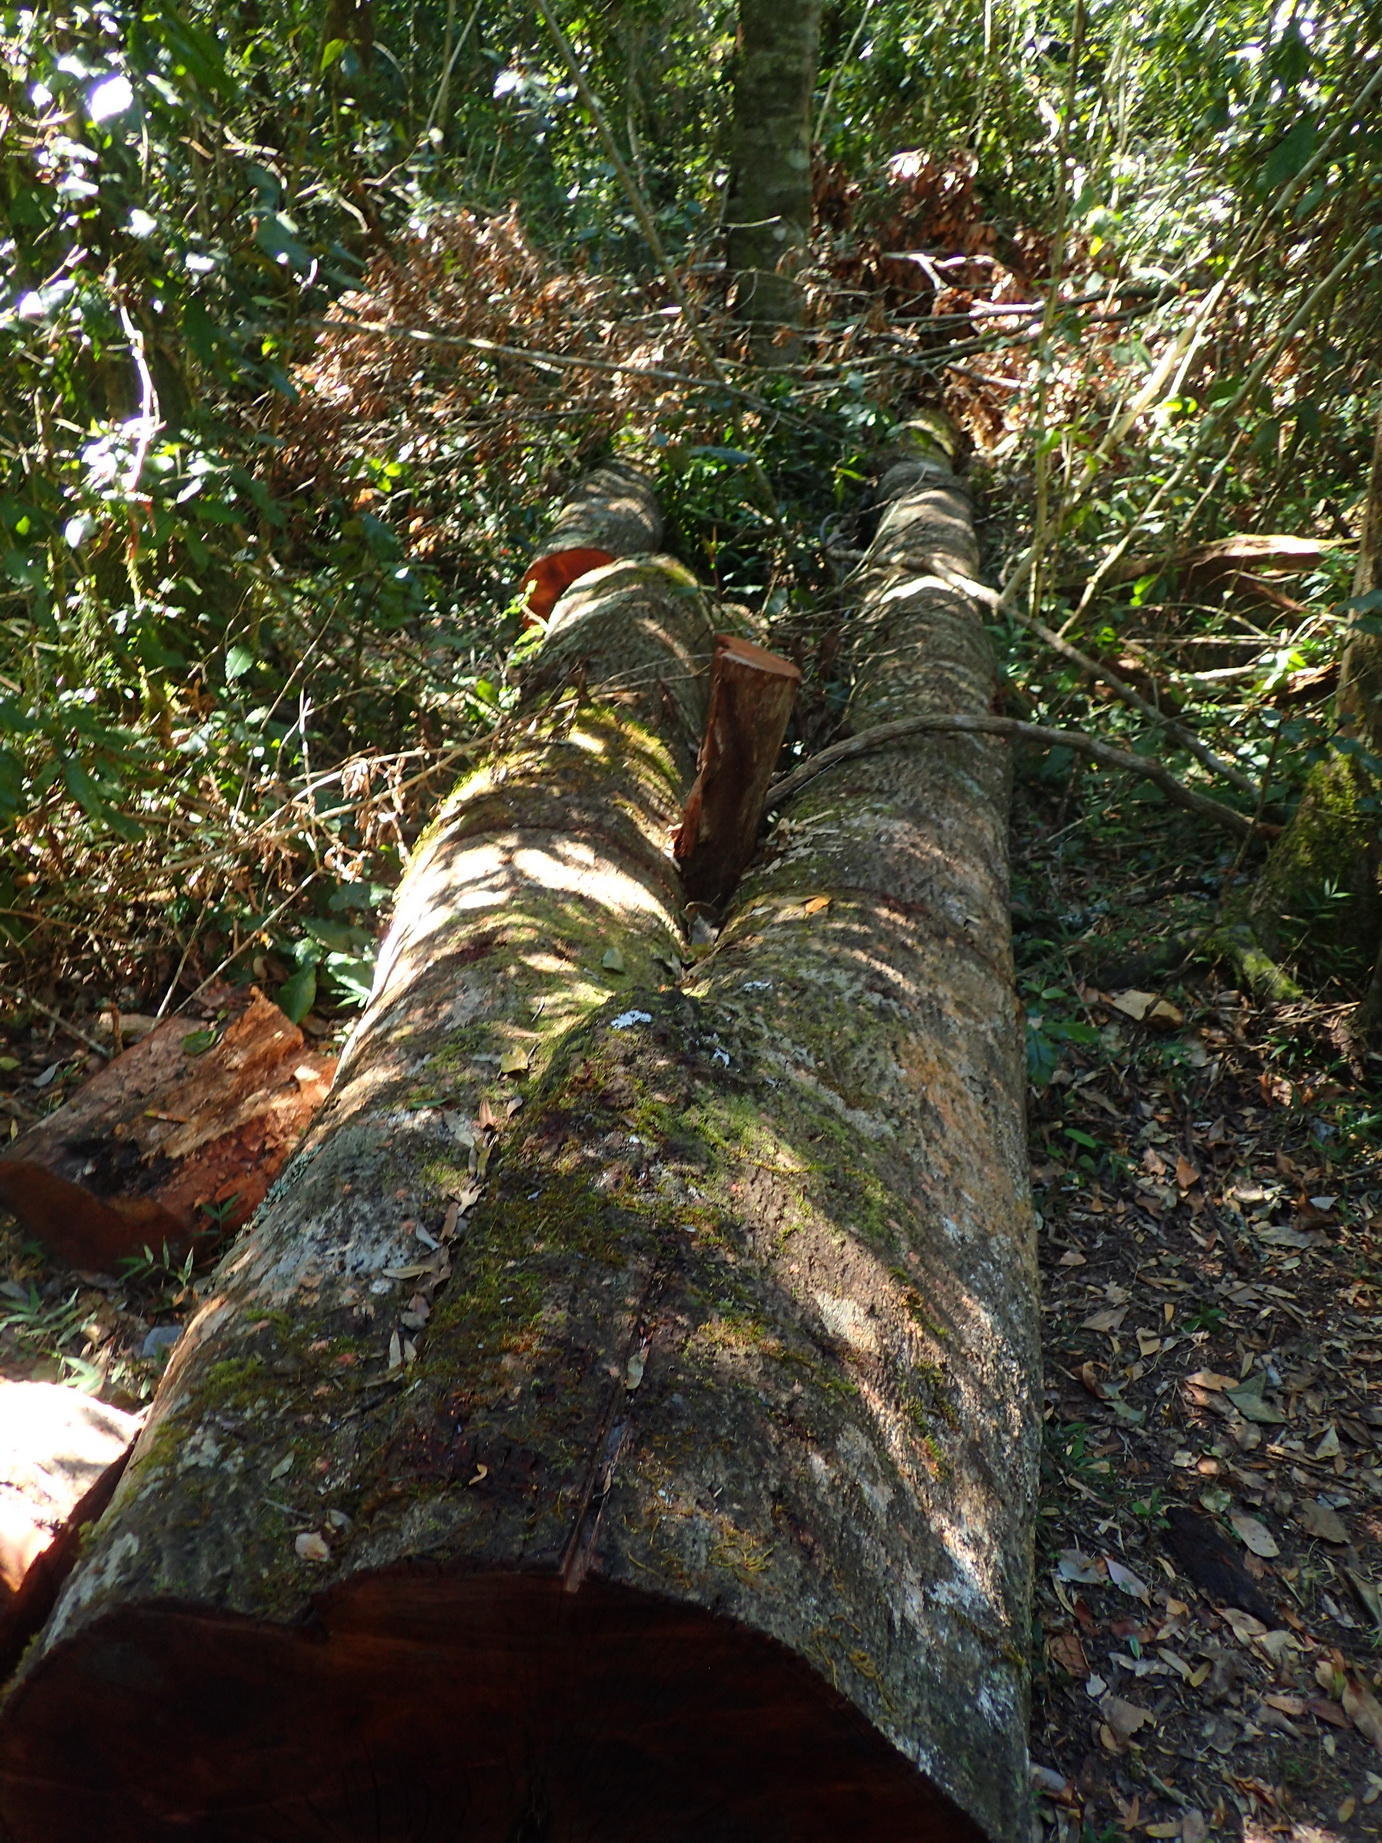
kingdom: Plantae
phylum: Tracheophyta
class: Magnoliopsida
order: Celastrales
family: Celastraceae
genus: Elaeodendron
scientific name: Elaeodendron croceum
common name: Saffron
